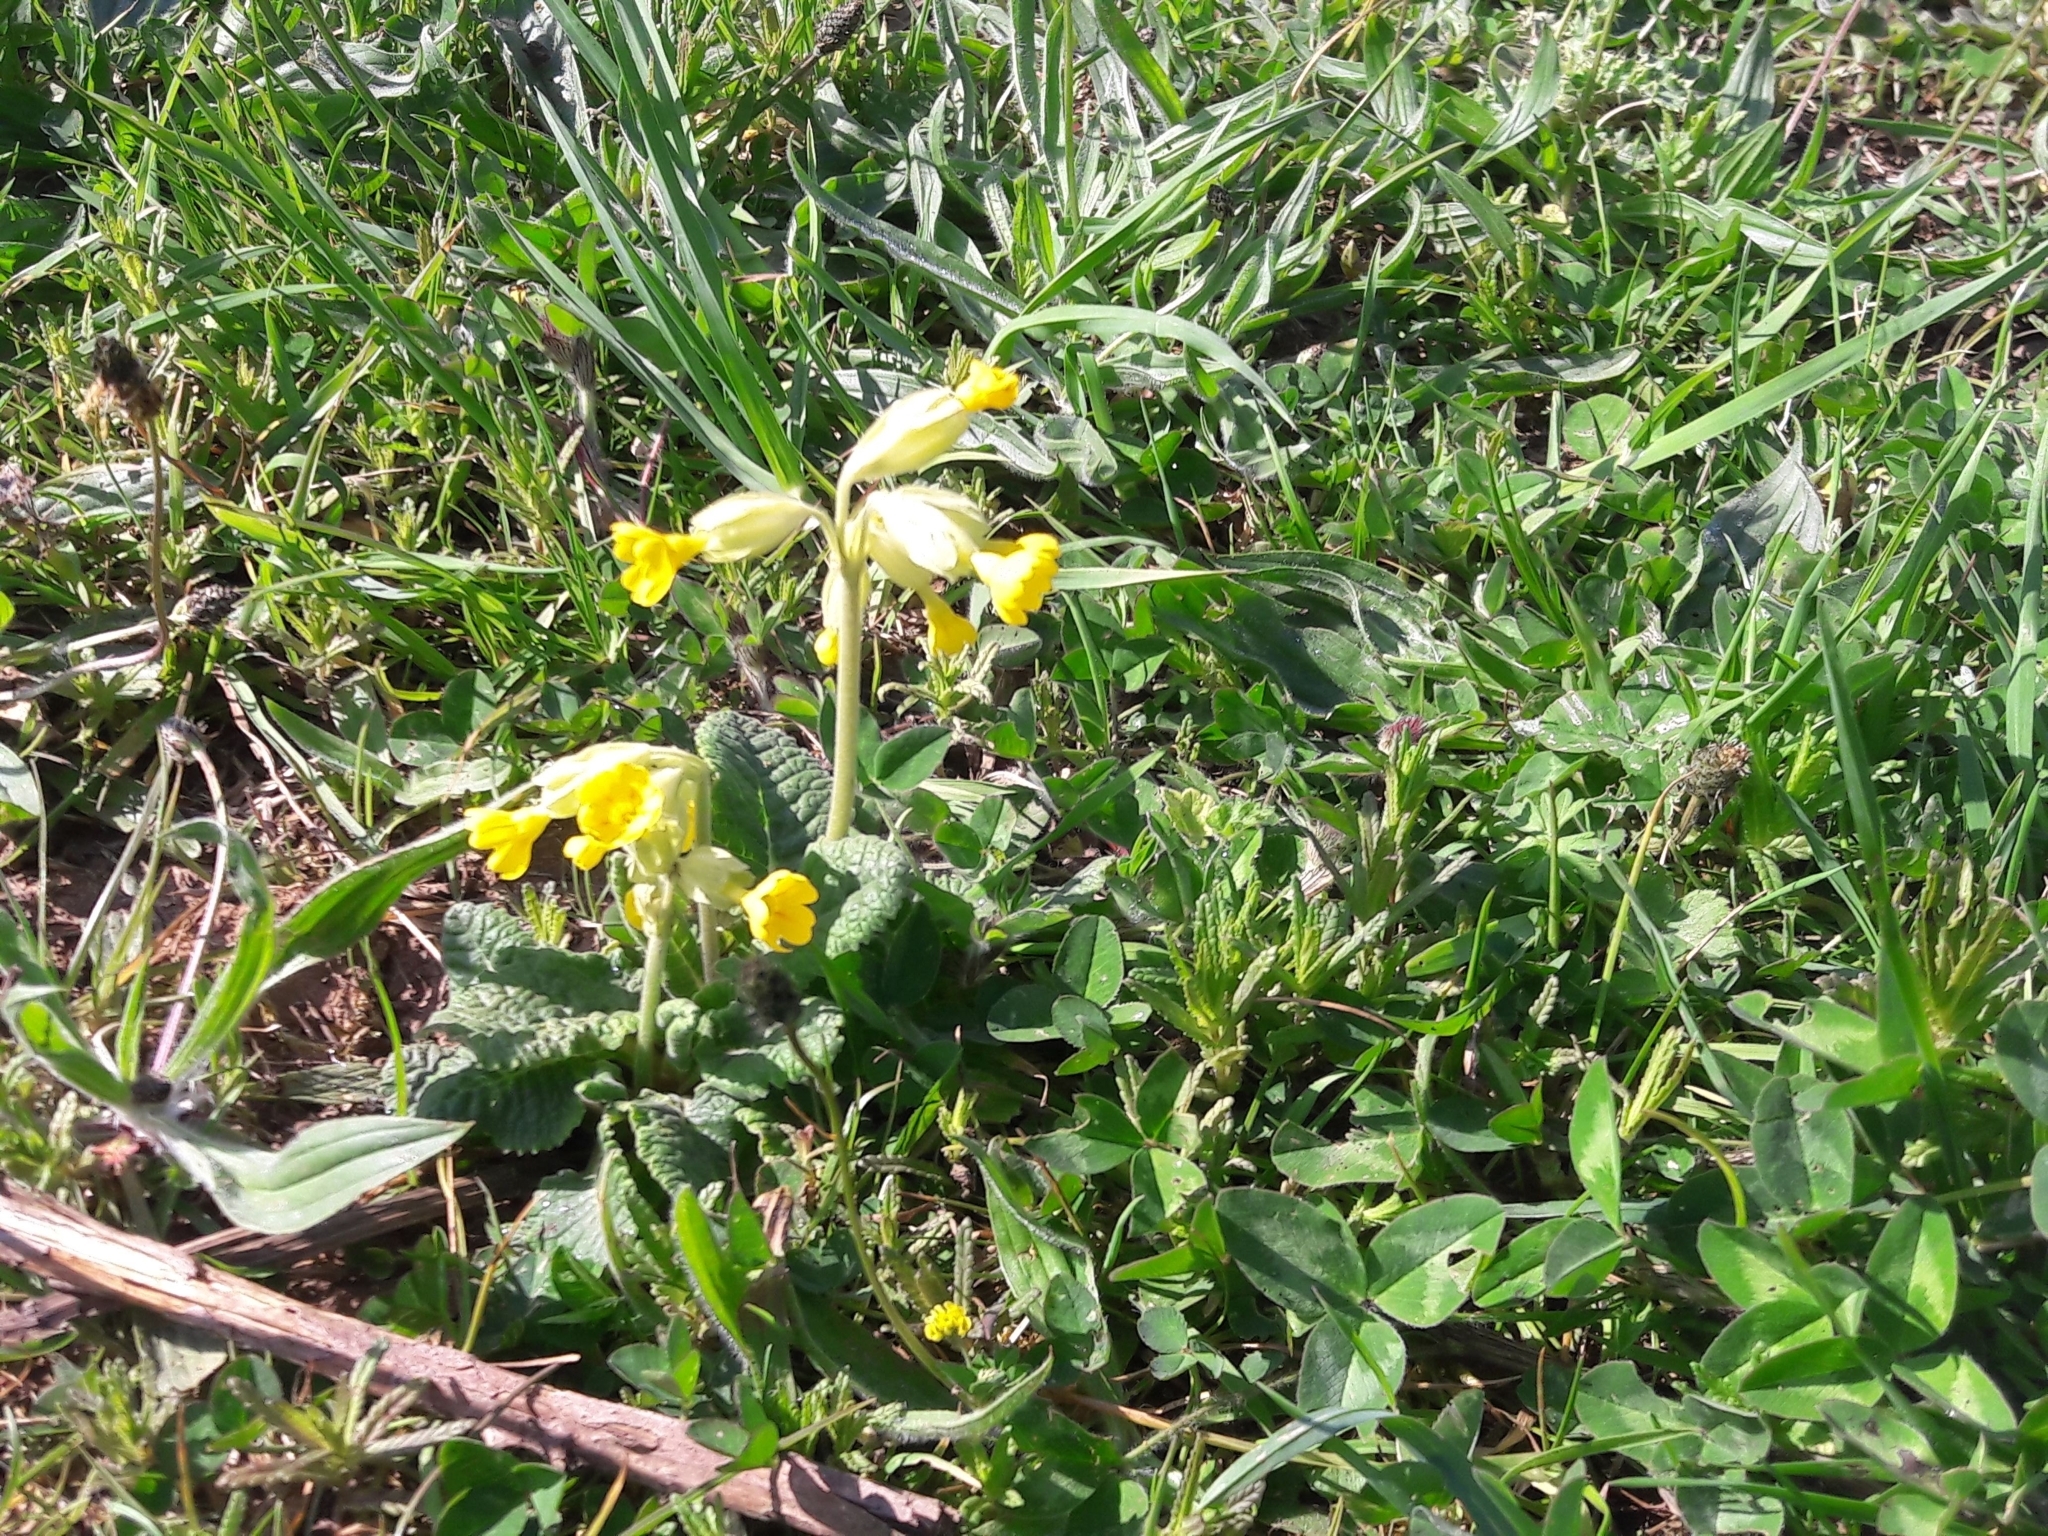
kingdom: Plantae
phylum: Tracheophyta
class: Magnoliopsida
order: Ericales
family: Primulaceae
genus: Primula
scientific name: Primula veris
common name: Cowslip
